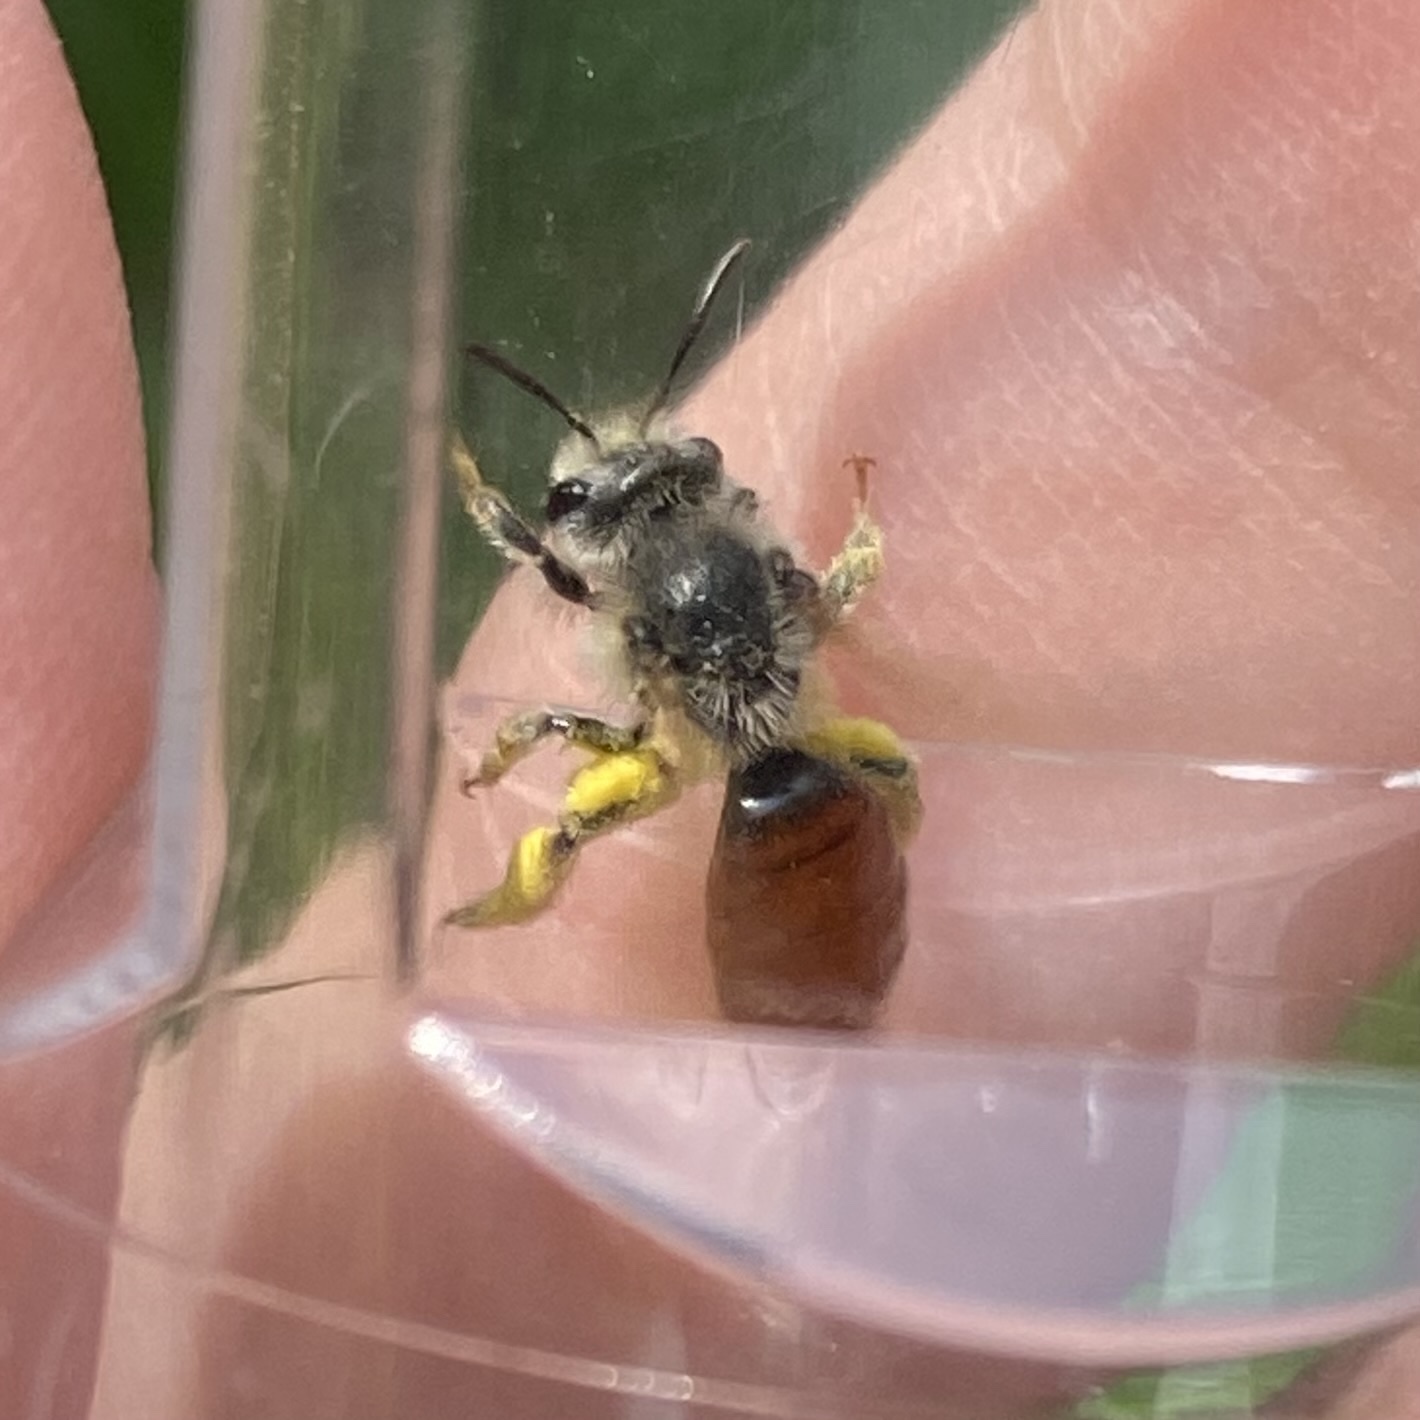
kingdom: Animalia
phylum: Arthropoda
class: Insecta
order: Hymenoptera
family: Andrenidae
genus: Andrena
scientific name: Andrena erythrogaster
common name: Red-tailed mining bee
